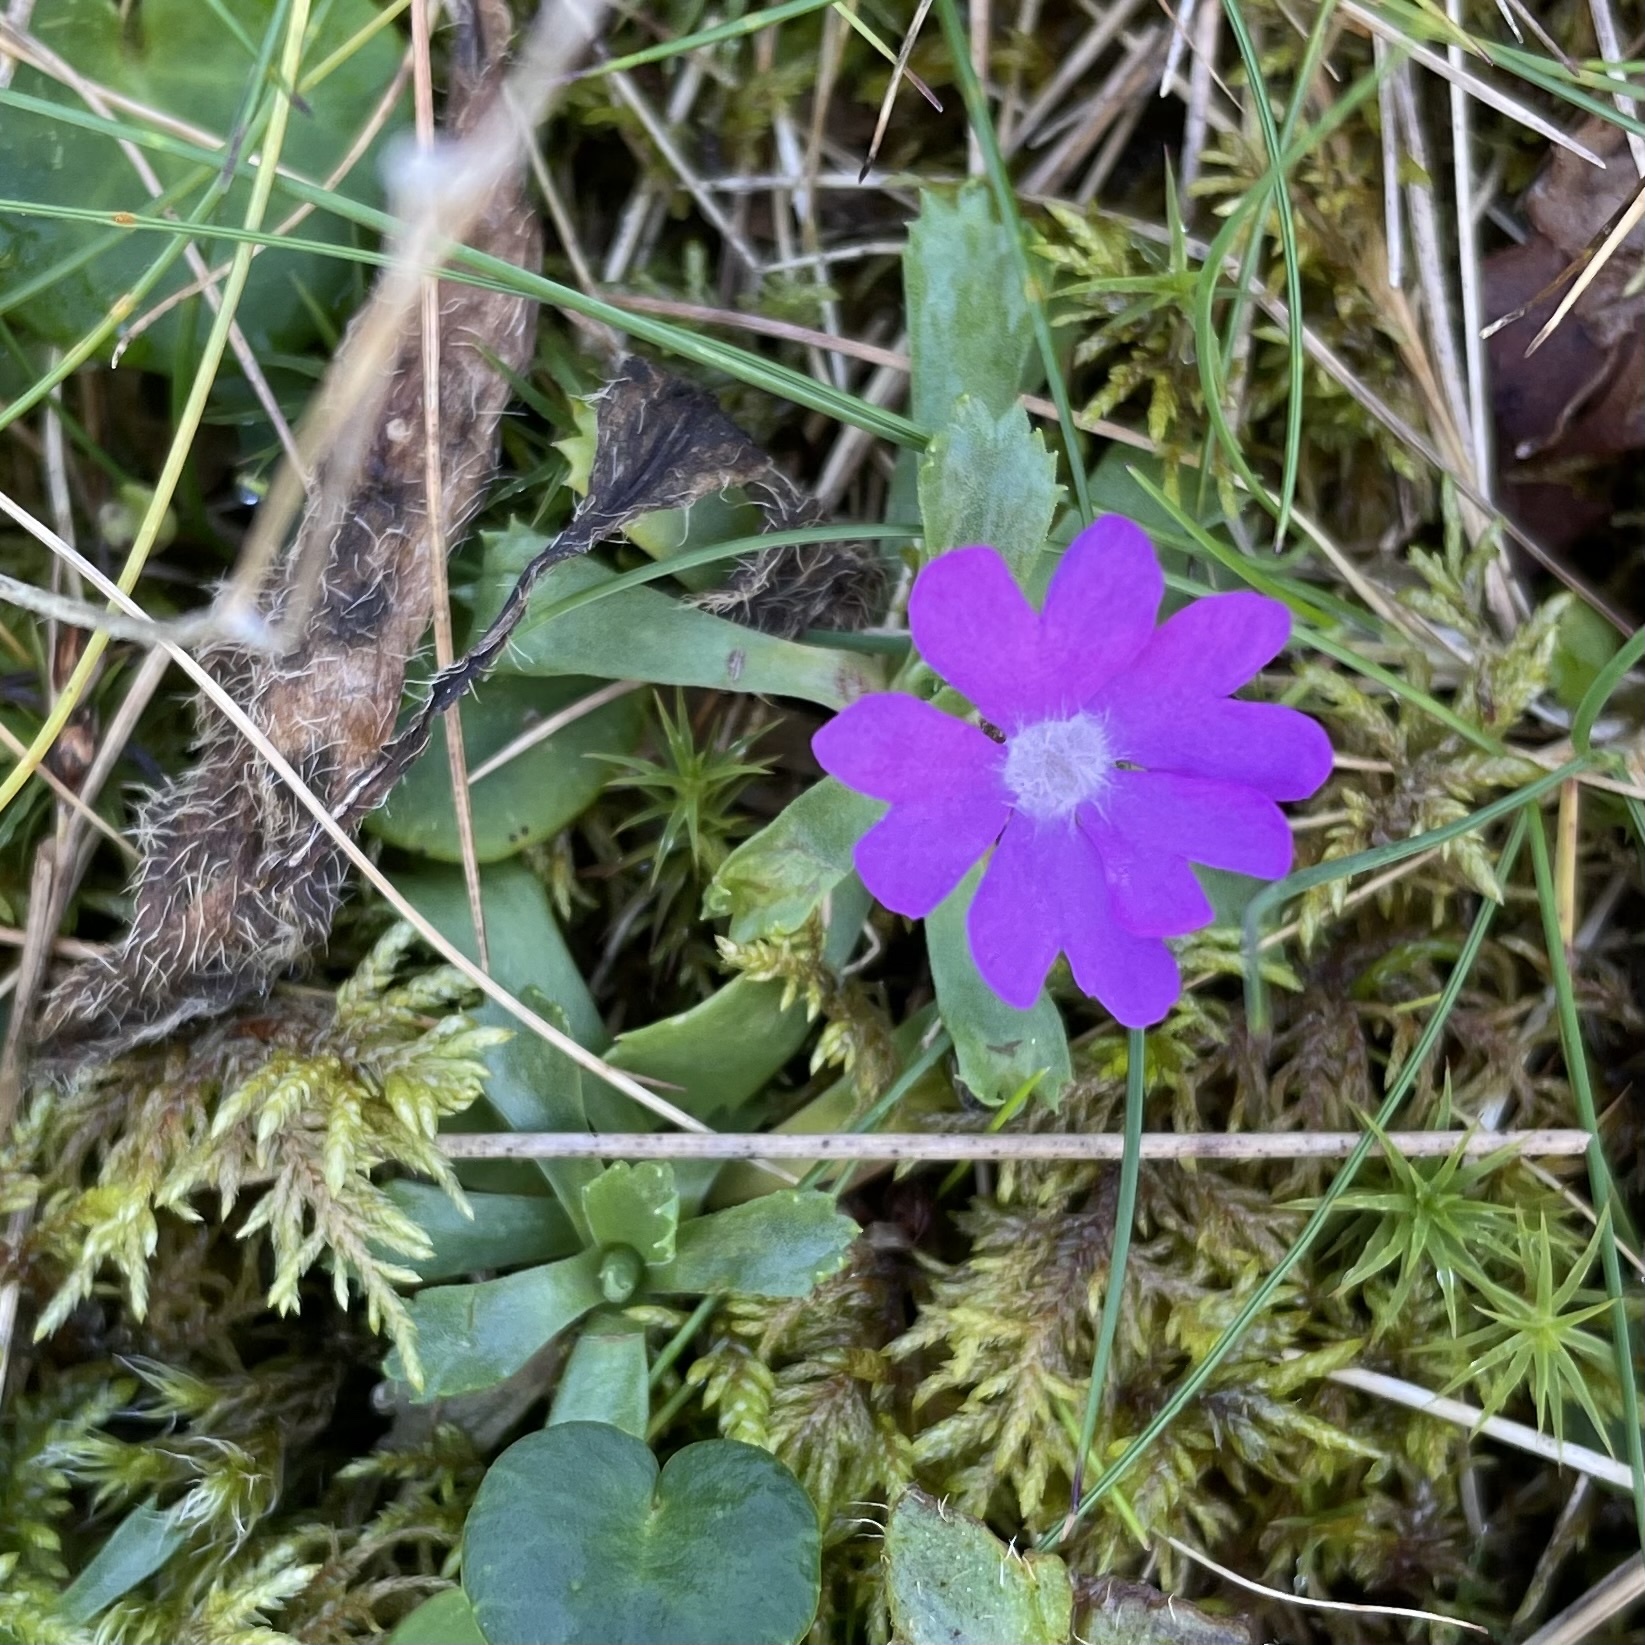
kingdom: Plantae
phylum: Tracheophyta
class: Magnoliopsida
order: Ericales
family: Primulaceae
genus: Primula
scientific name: Primula minima
